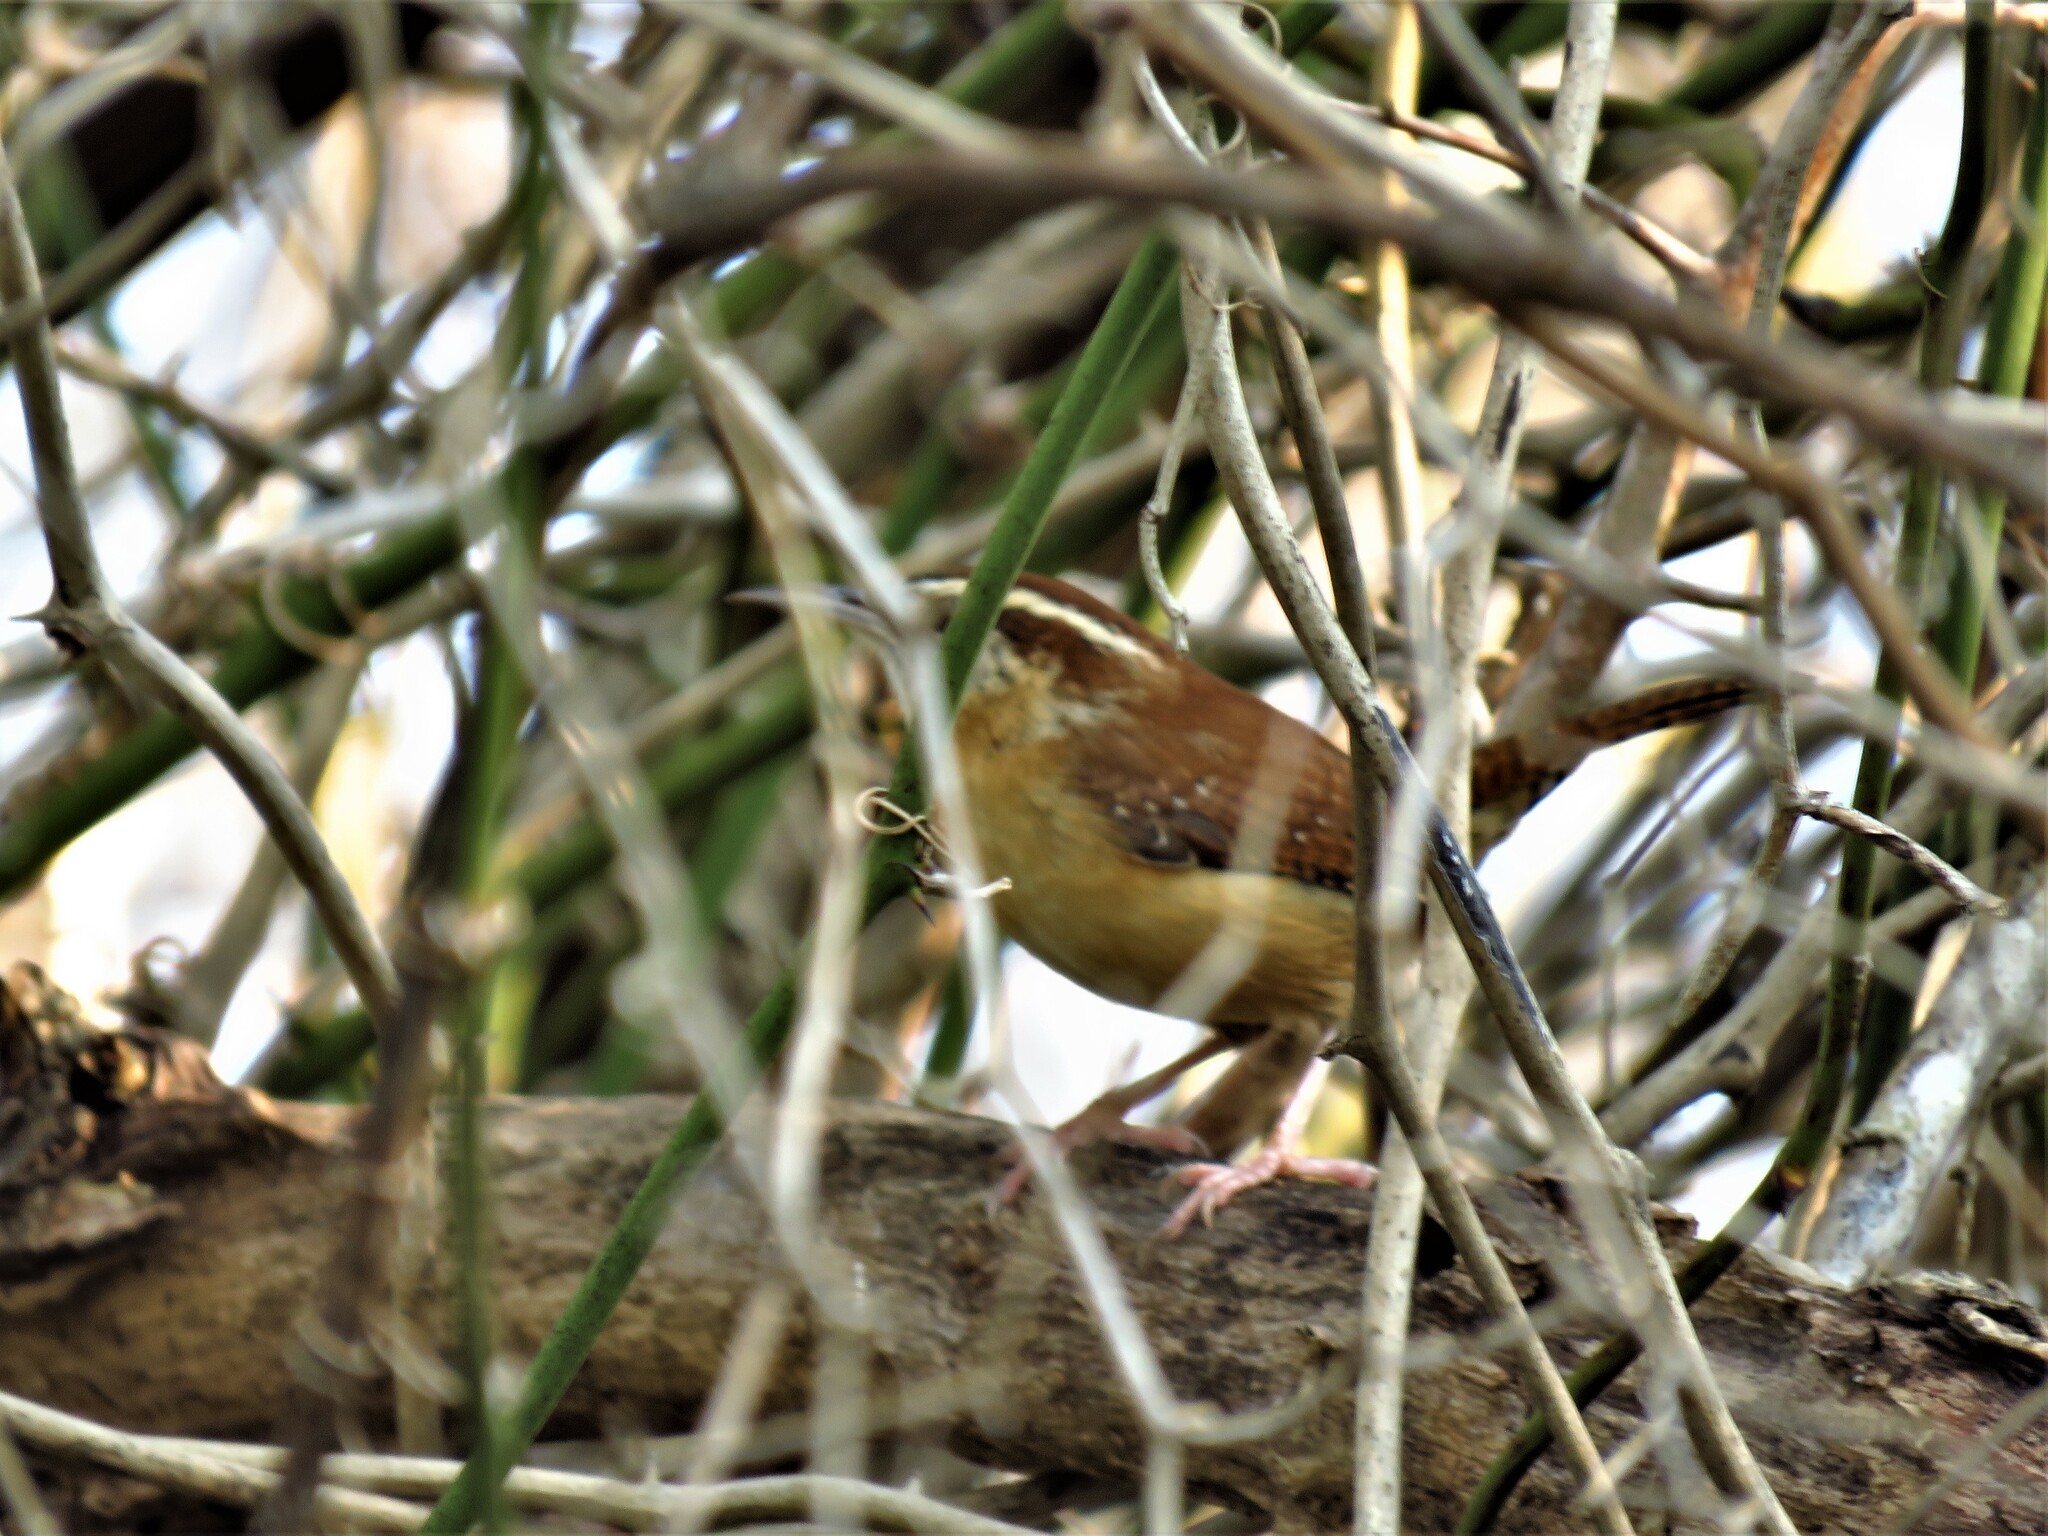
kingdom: Animalia
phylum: Chordata
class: Aves
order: Passeriformes
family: Troglodytidae
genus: Thryothorus
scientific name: Thryothorus ludovicianus
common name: Carolina wren
